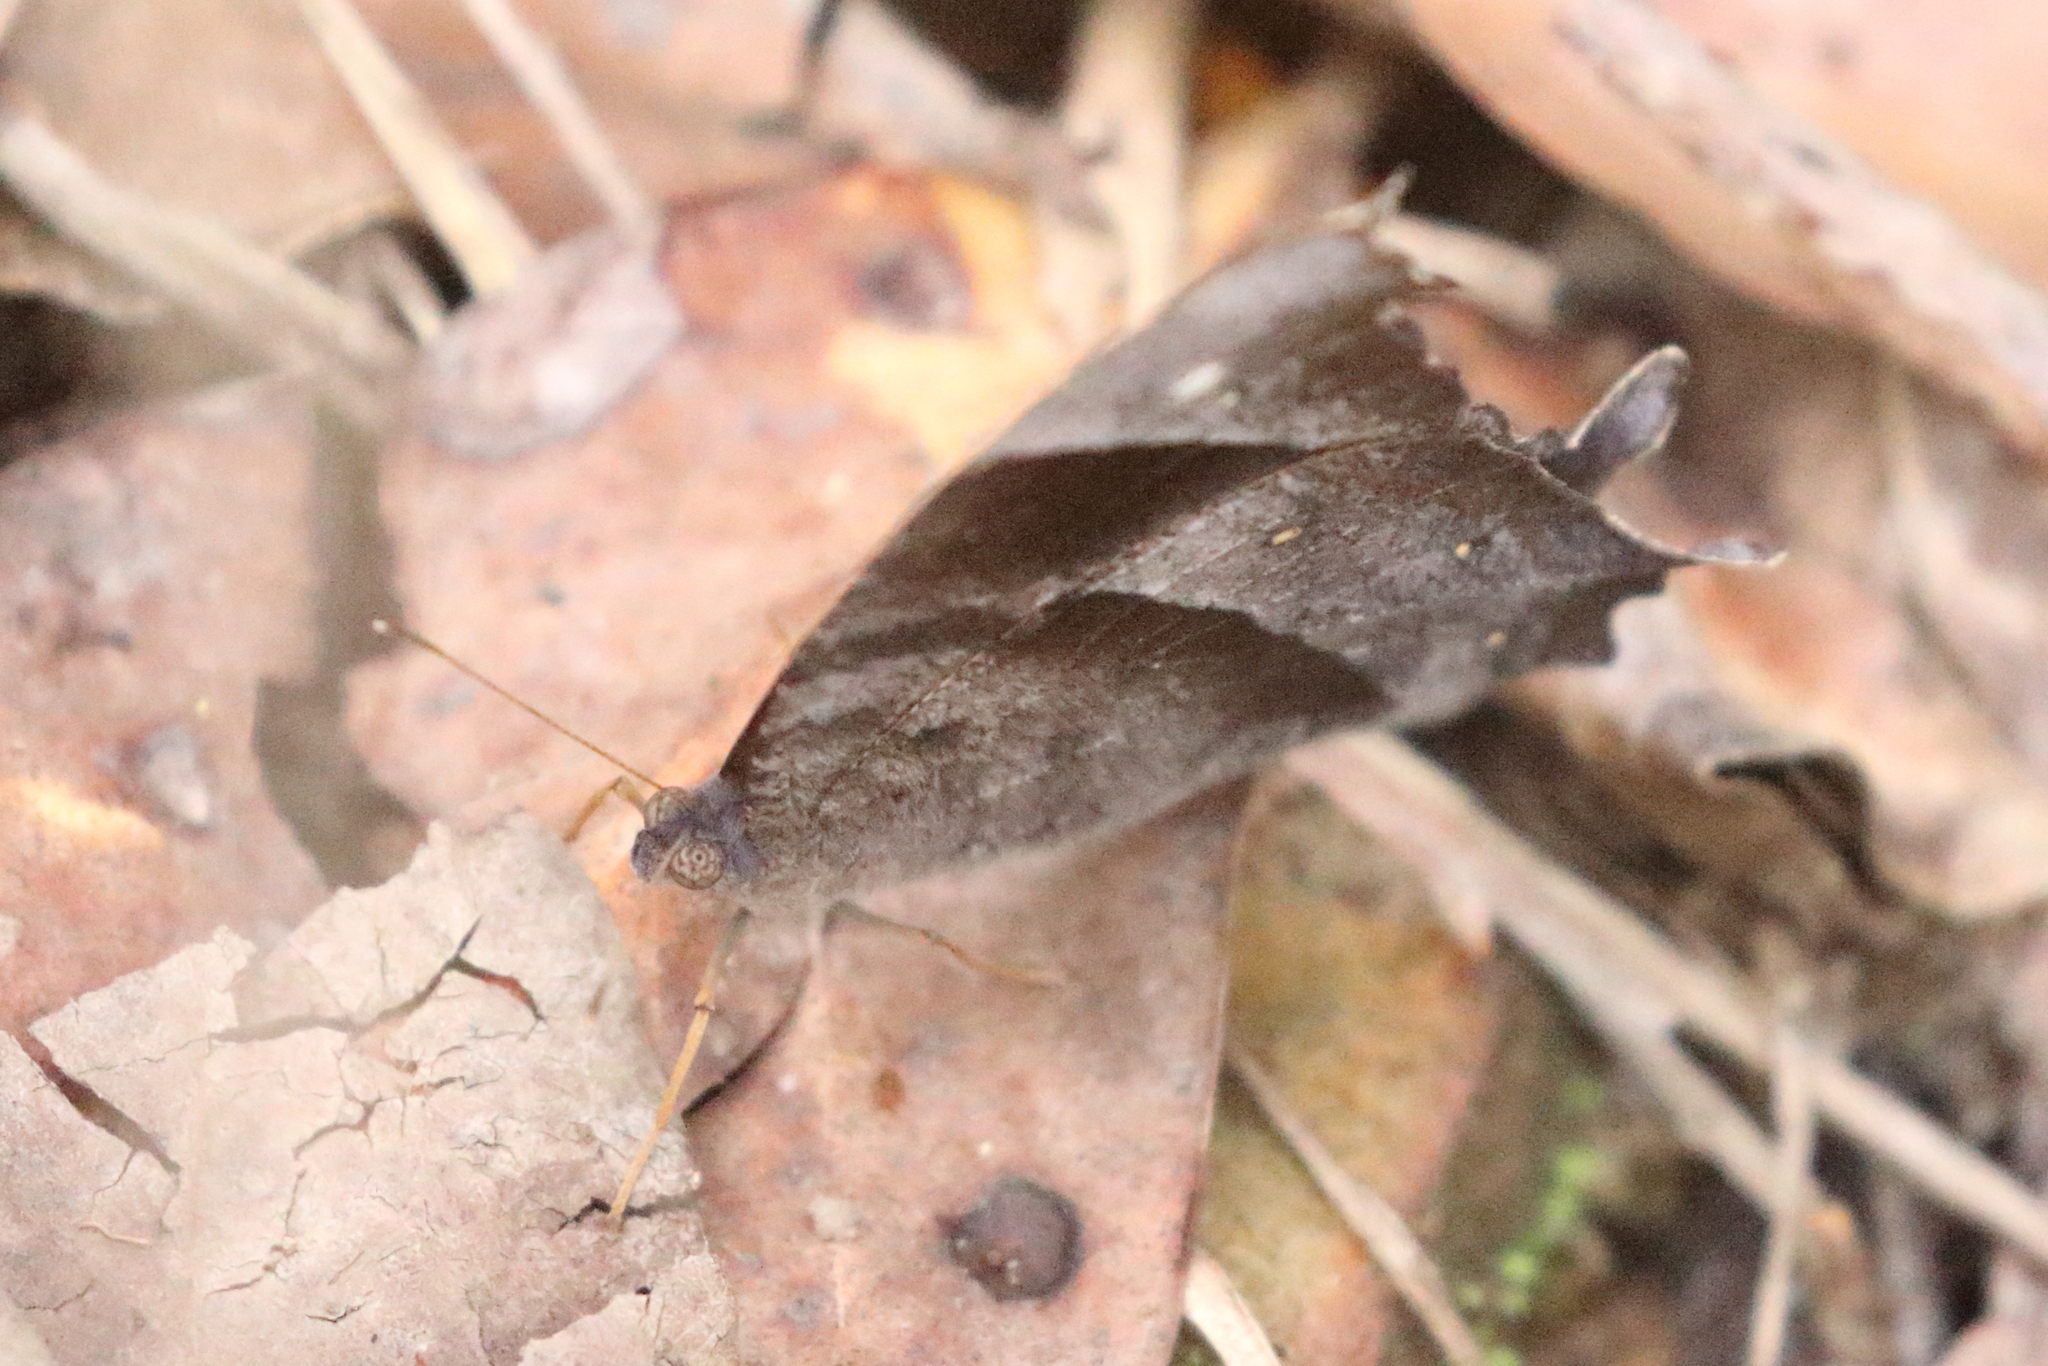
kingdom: Animalia
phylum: Arthropoda
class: Insecta
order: Lepidoptera
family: Nymphalidae
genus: Melanitis
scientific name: Melanitis leda
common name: Twilight brown
